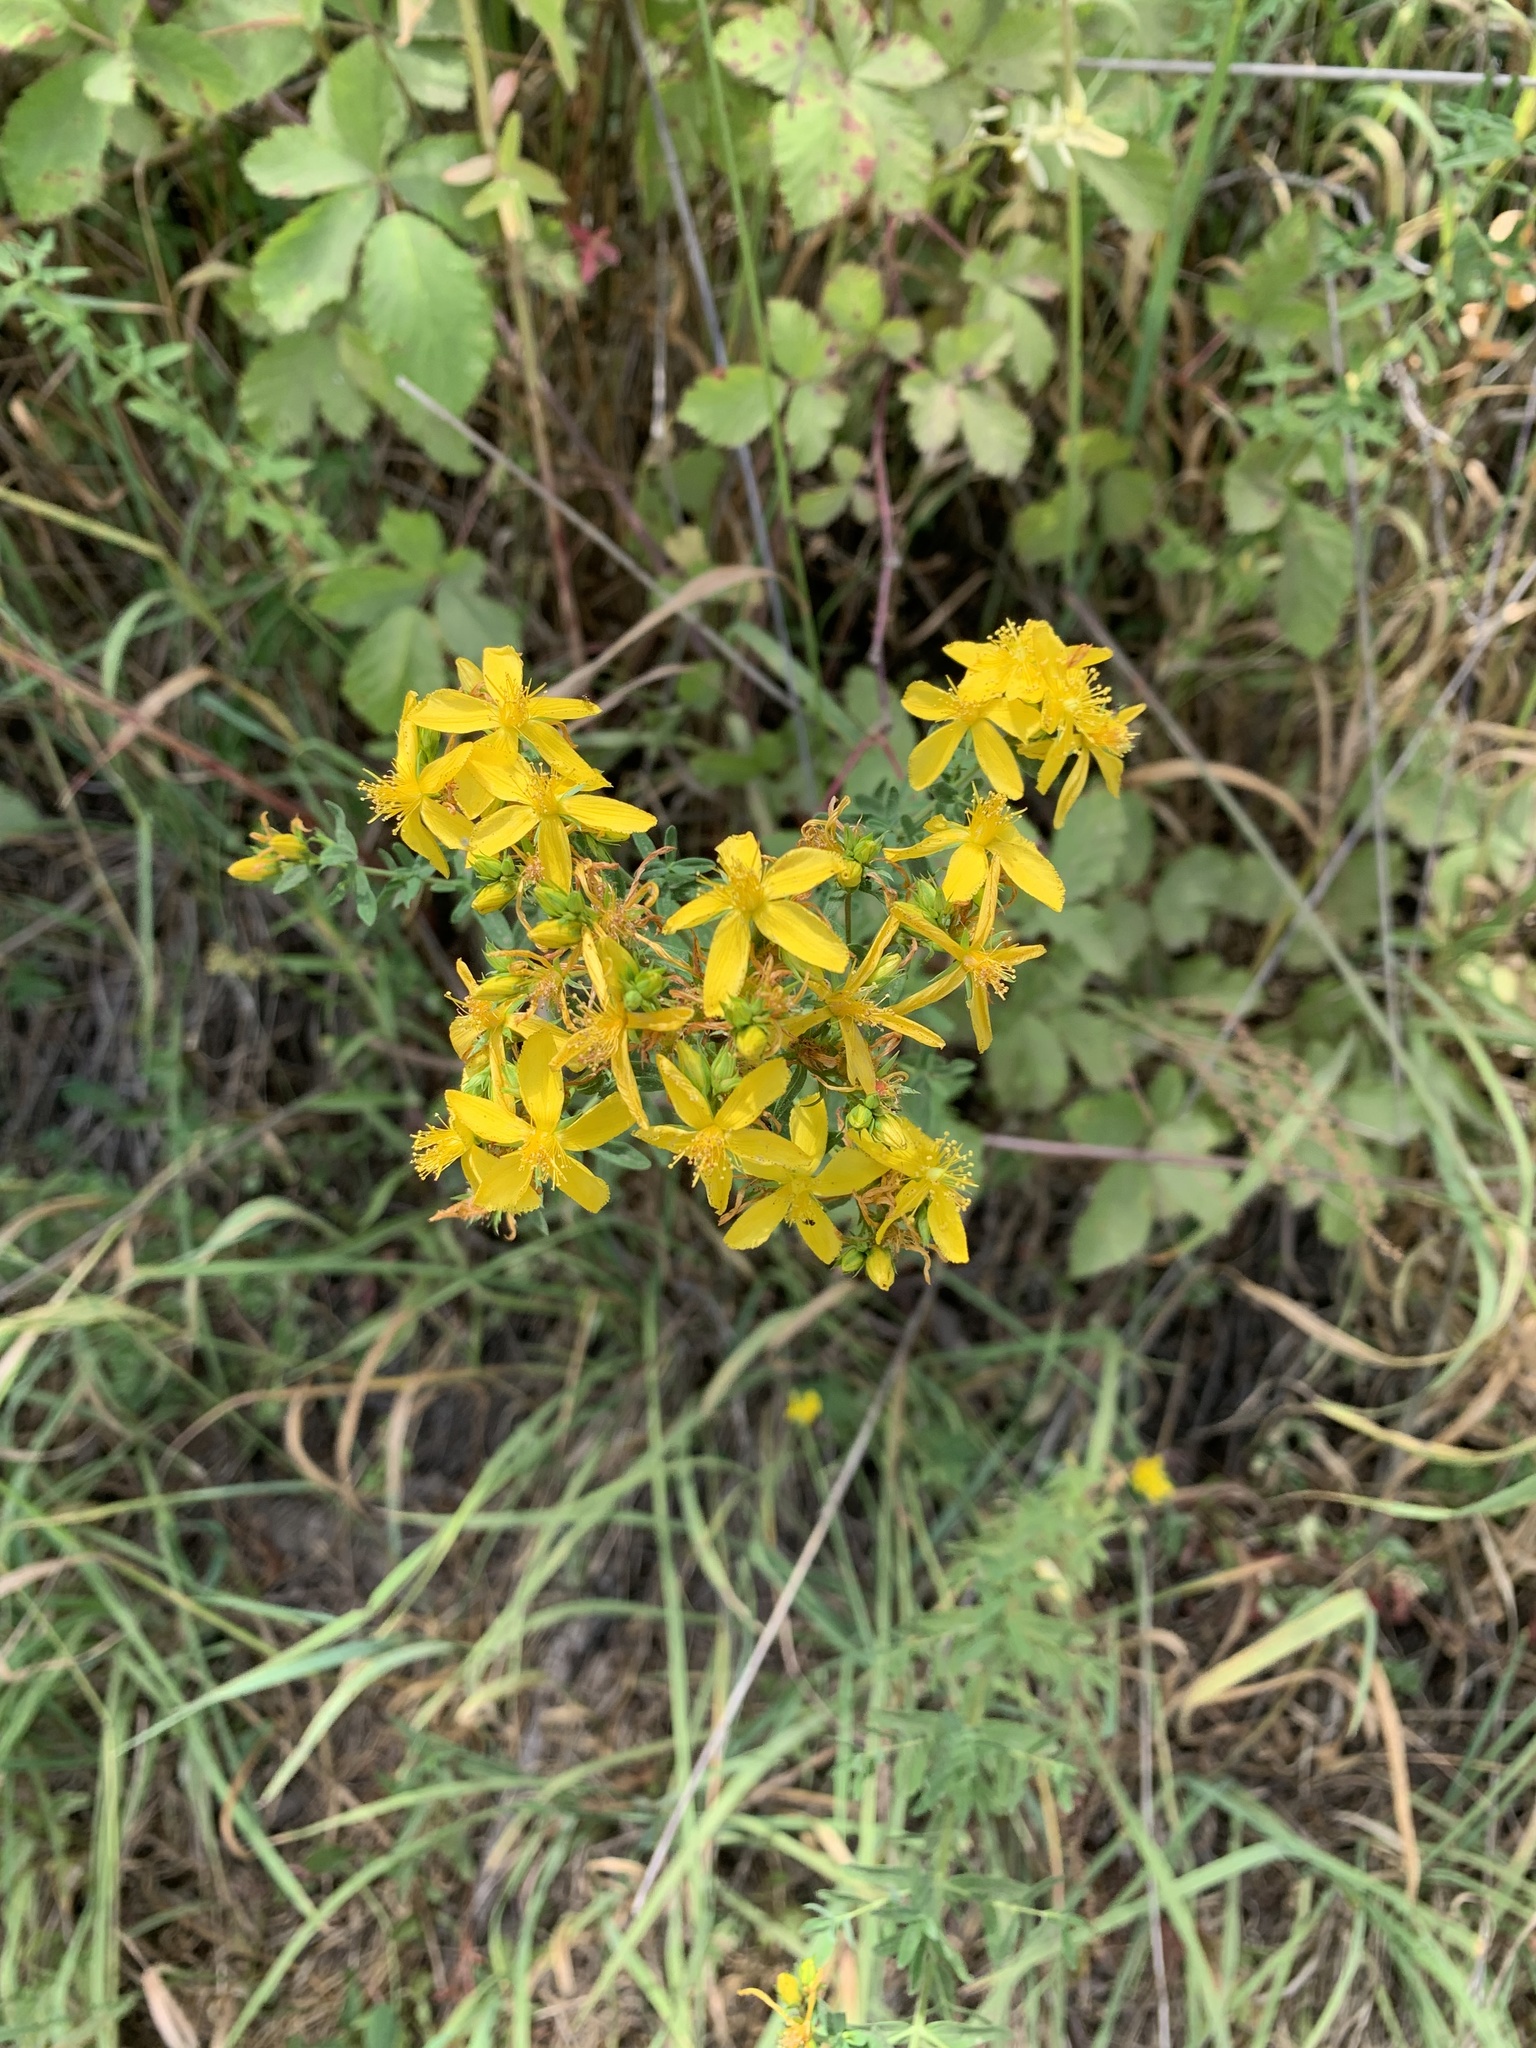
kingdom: Plantae
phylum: Tracheophyta
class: Magnoliopsida
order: Malpighiales
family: Hypericaceae
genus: Hypericum
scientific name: Hypericum perforatum
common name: Common st. johnswort
